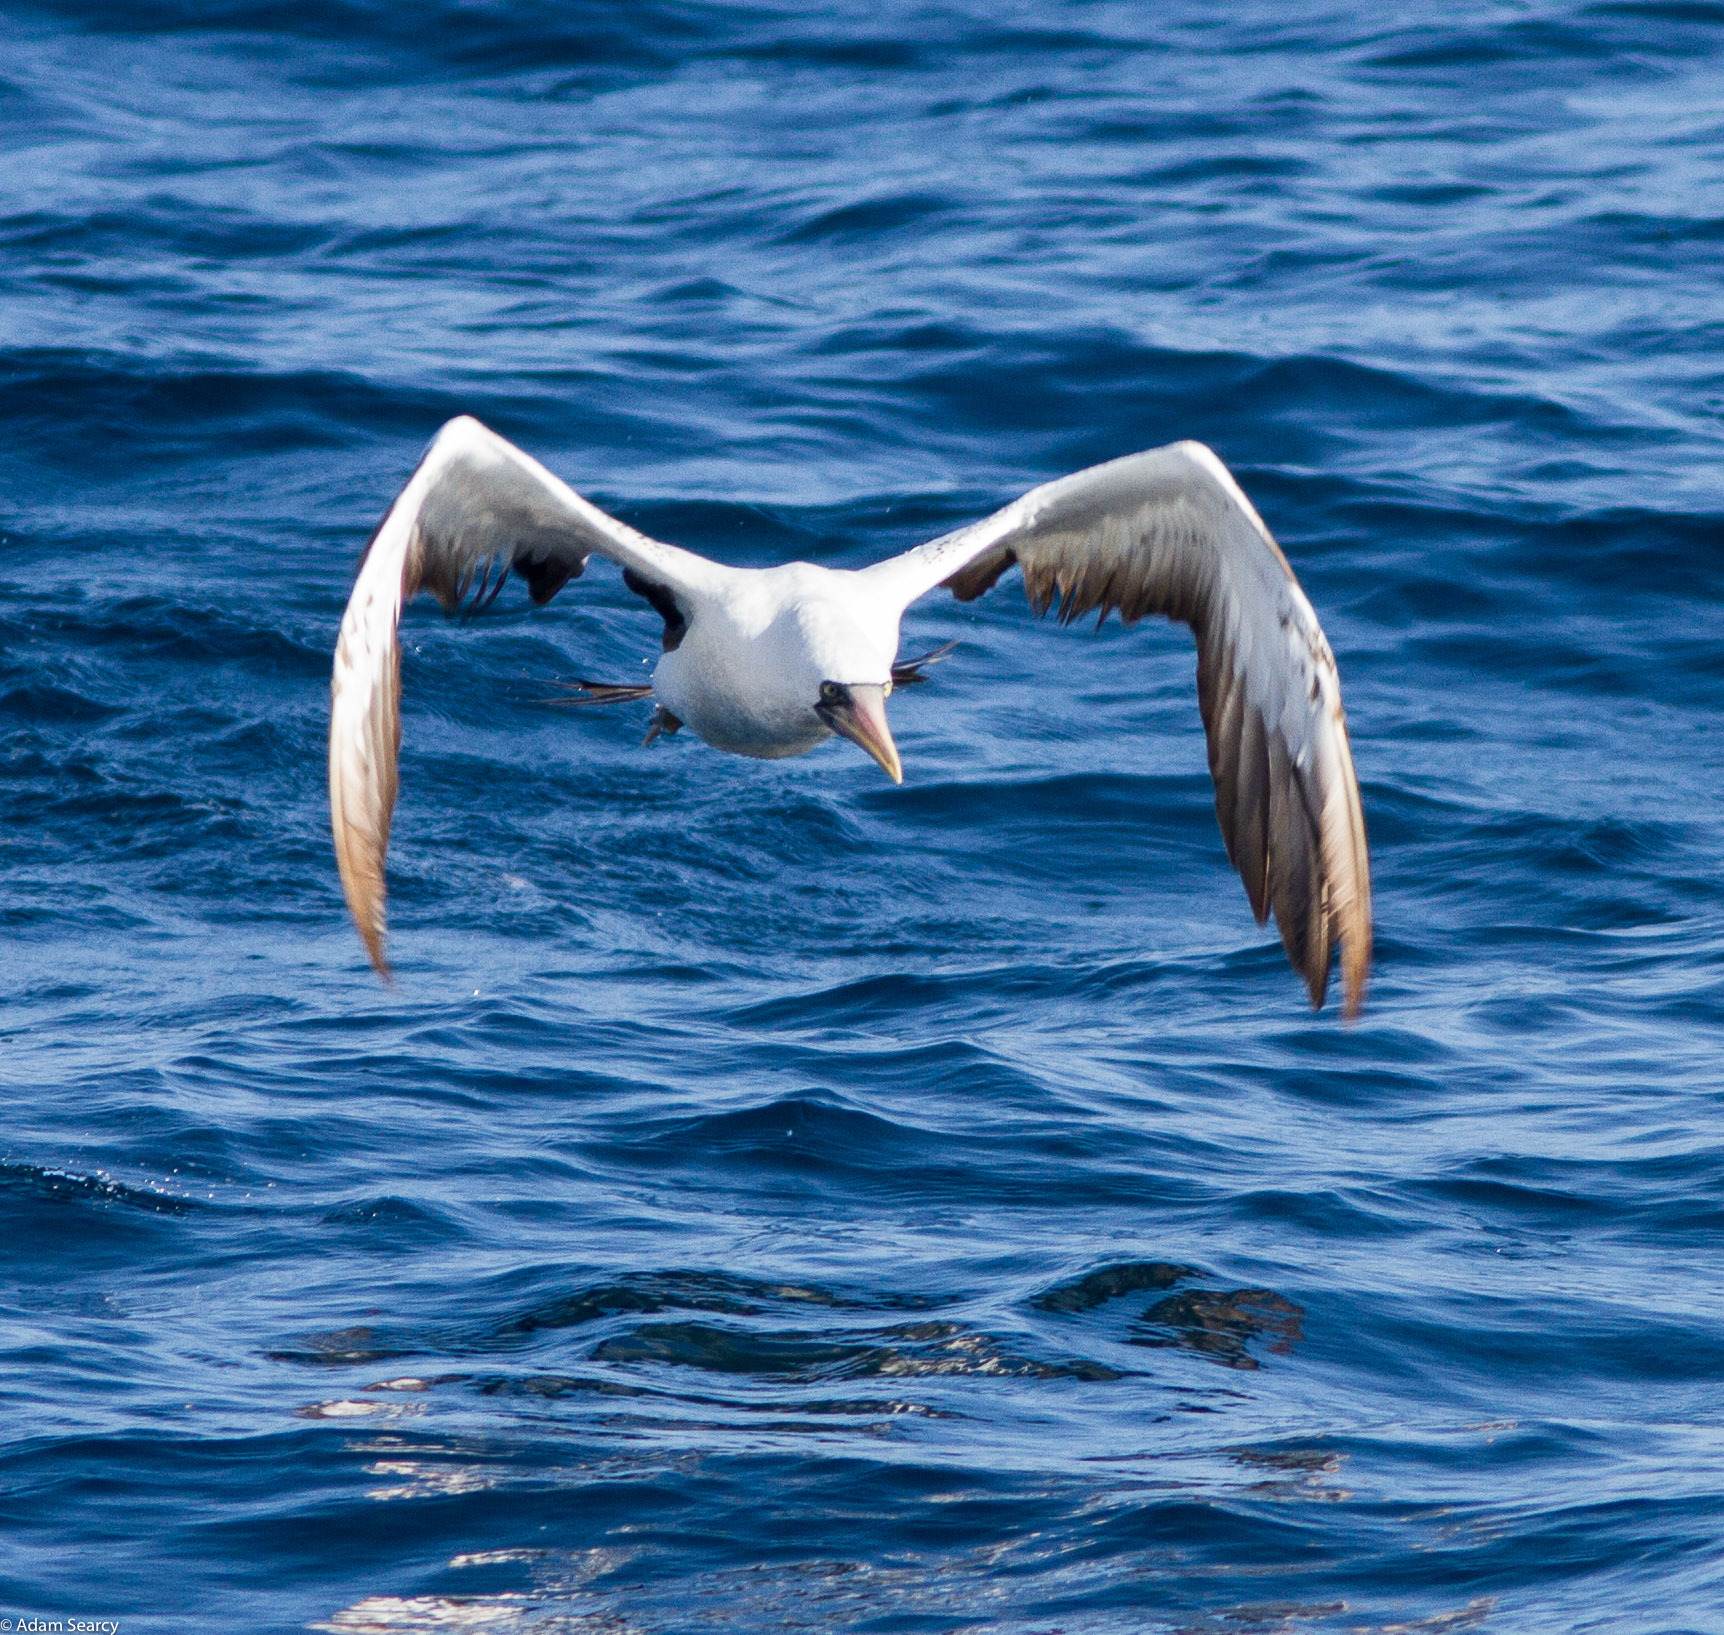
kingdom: Animalia
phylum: Chordata
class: Aves
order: Suliformes
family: Sulidae
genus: Sula
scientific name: Sula granti
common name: Nazca booby
